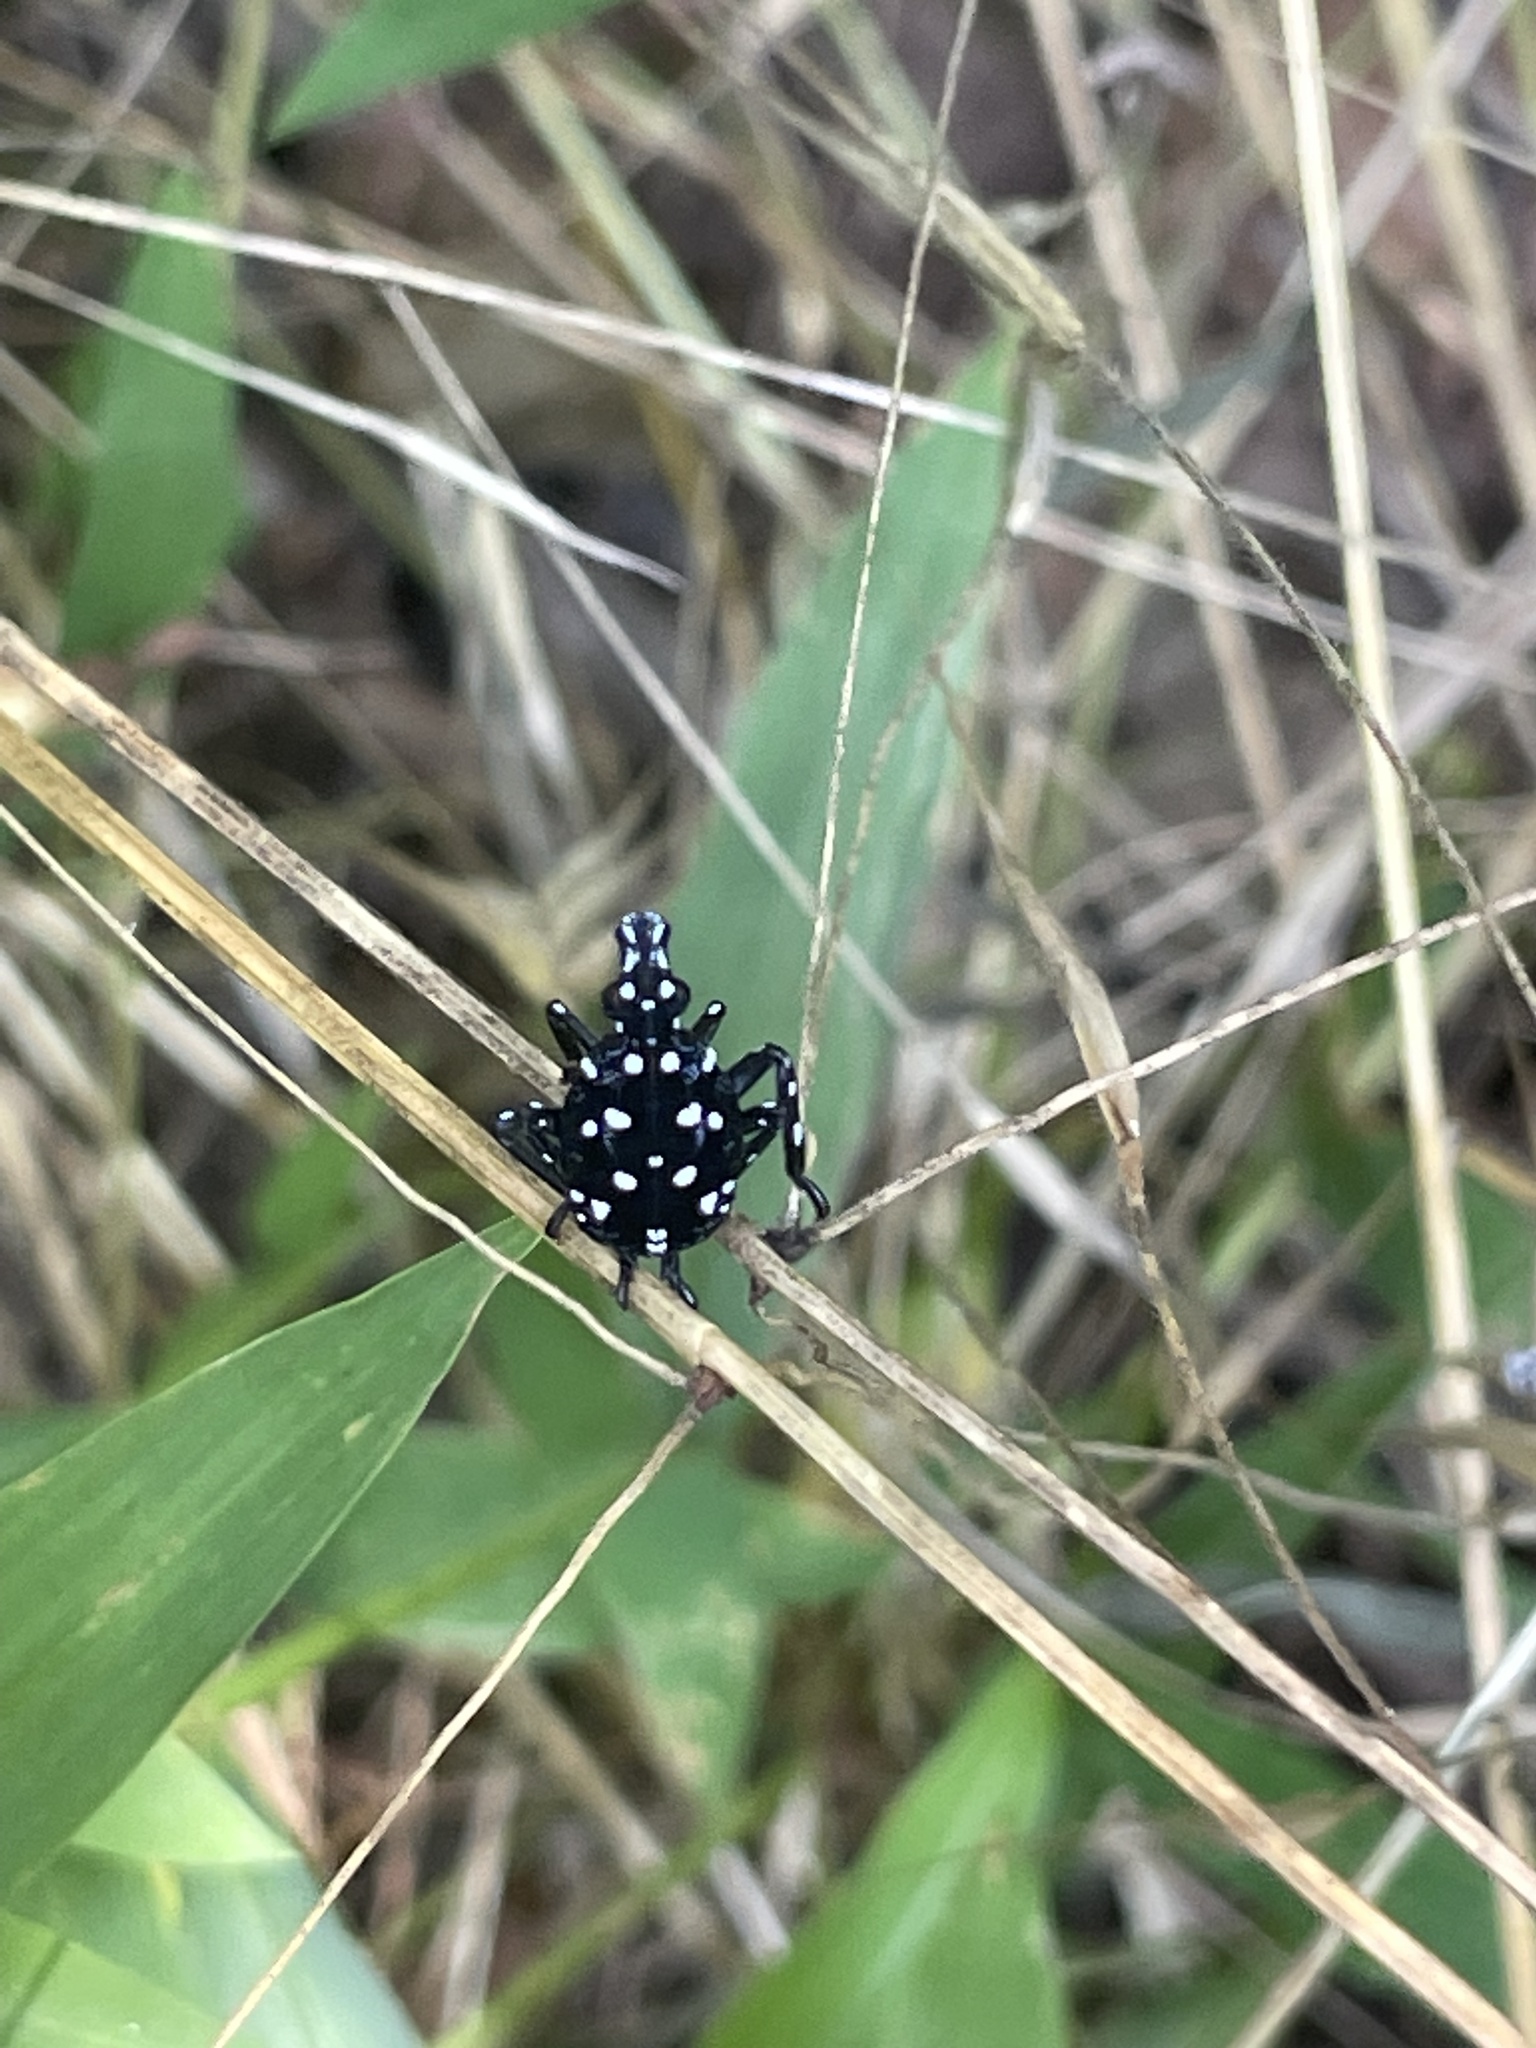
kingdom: Animalia
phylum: Arthropoda
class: Insecta
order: Hemiptera
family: Fulgoridae
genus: Lycorma
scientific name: Lycorma delicatula
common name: Spotted lanternfly
